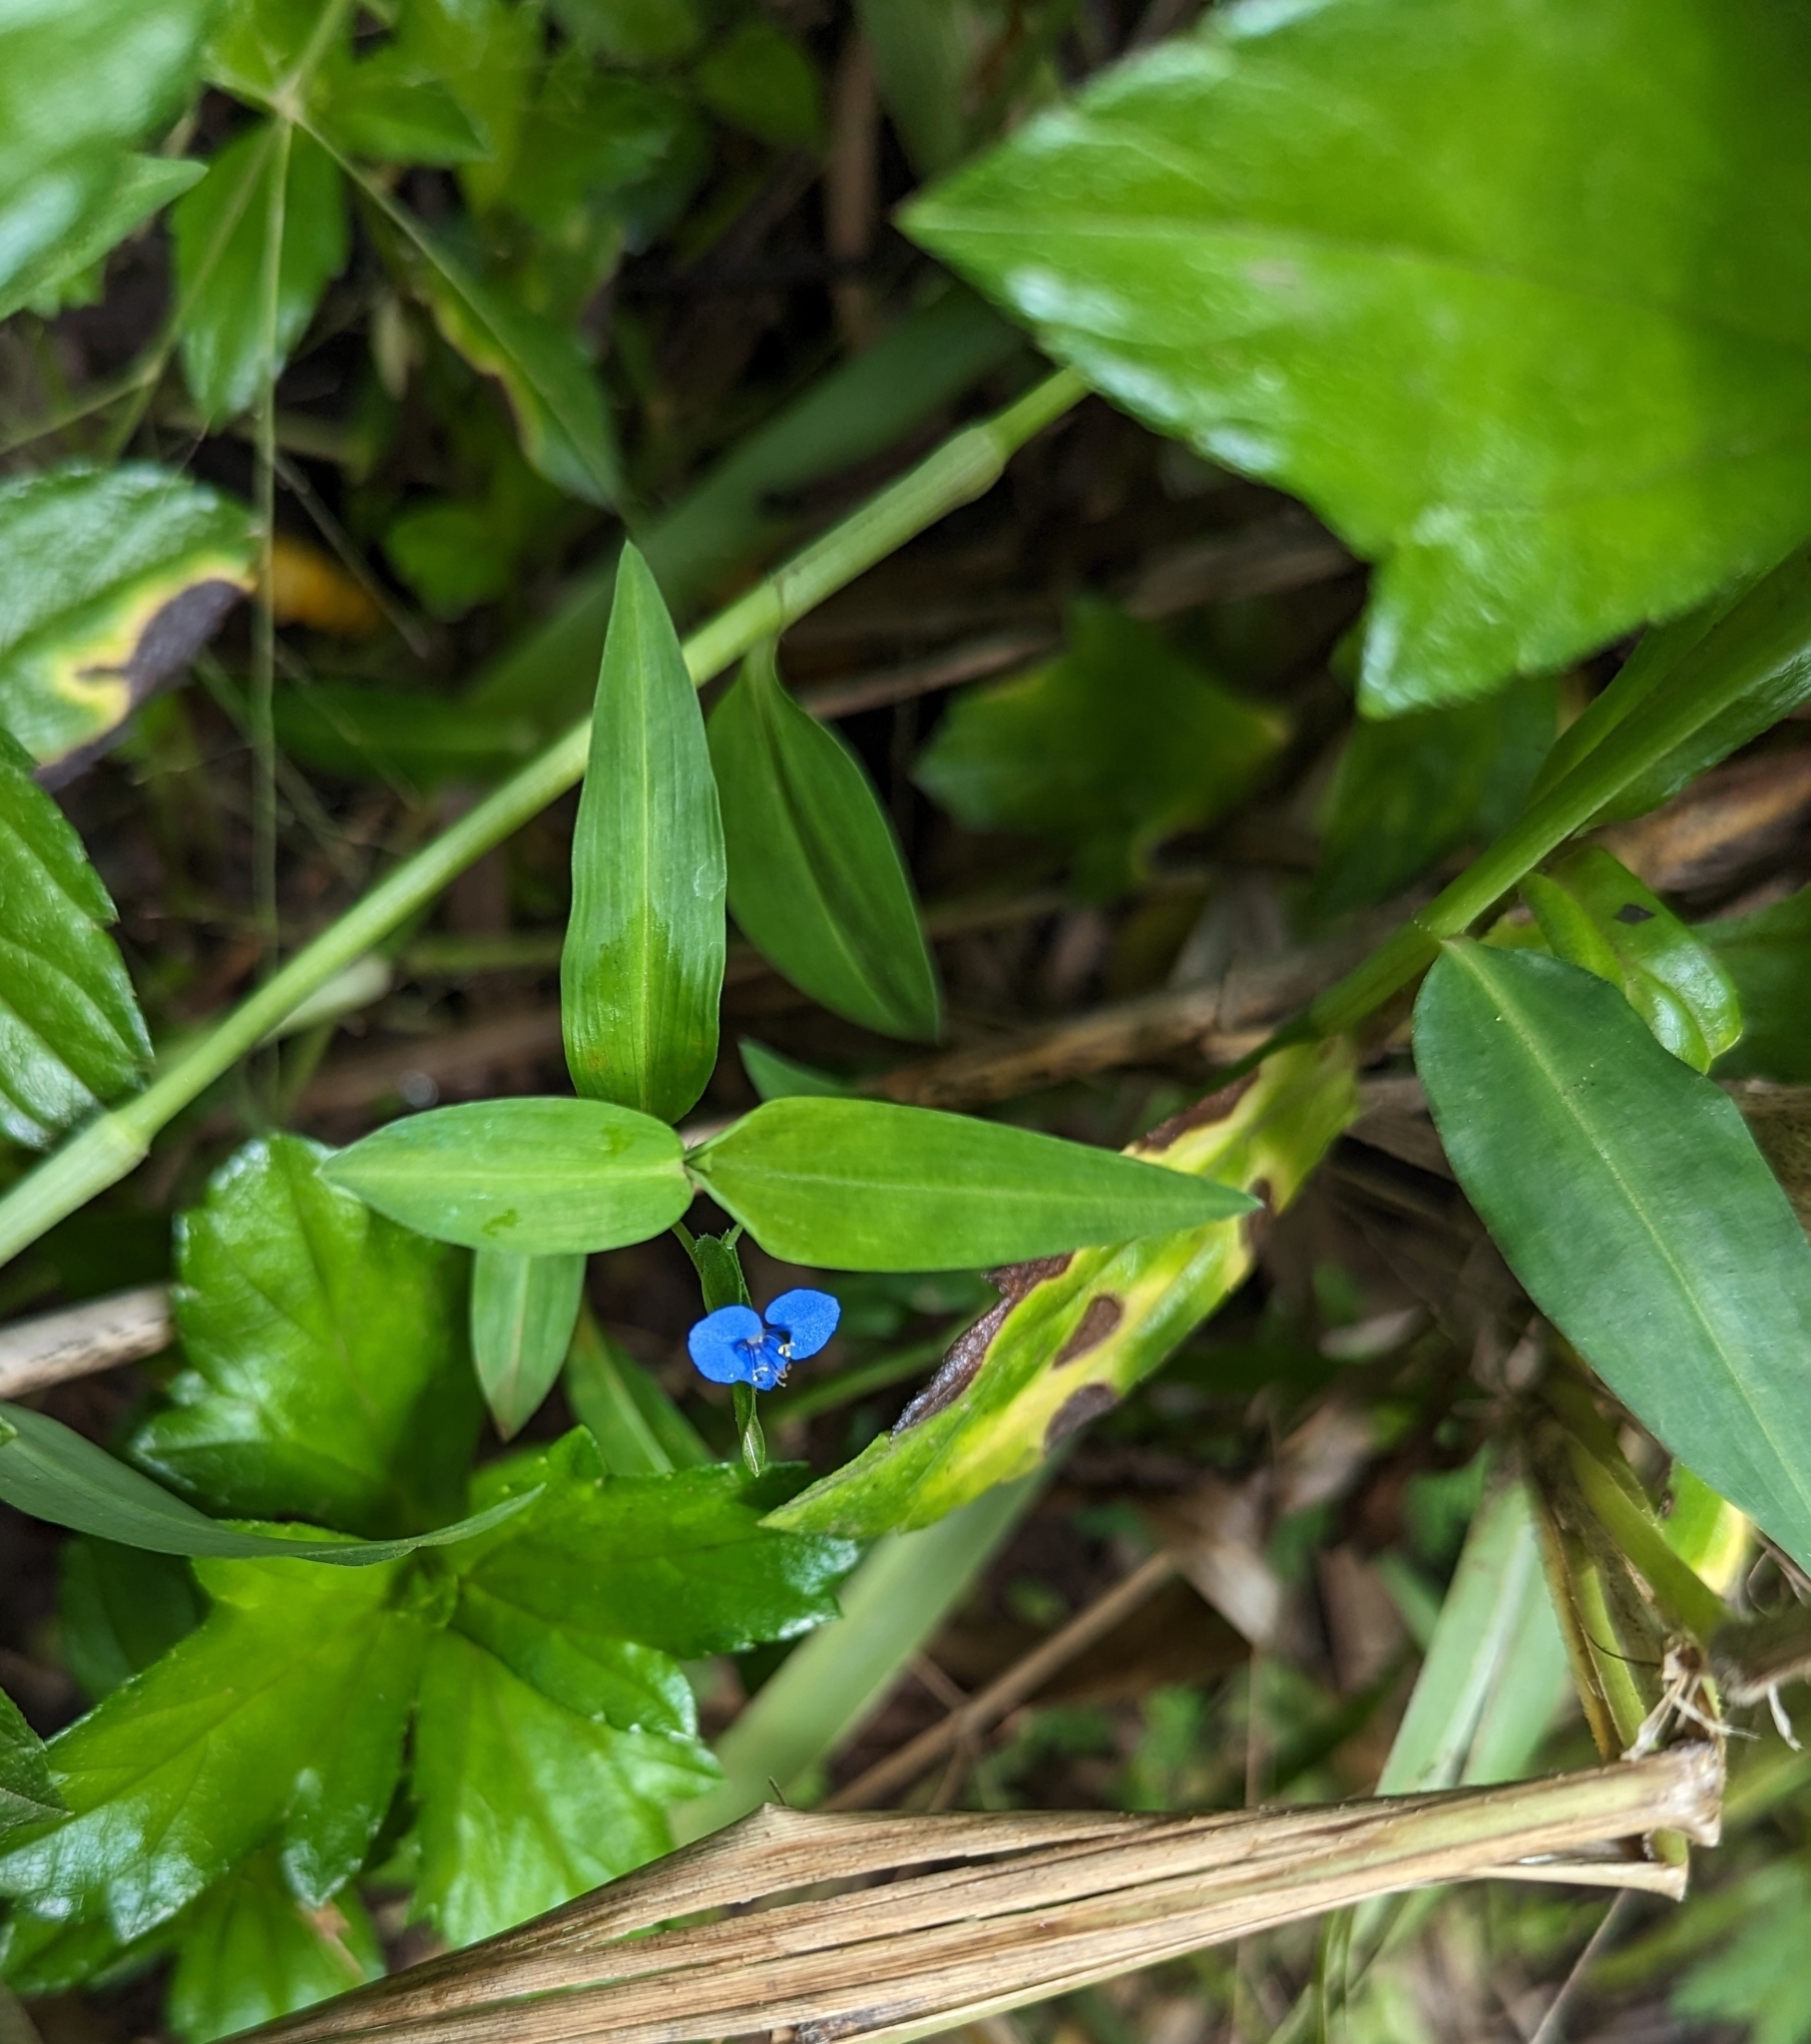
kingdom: Plantae
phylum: Tracheophyta
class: Liliopsida
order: Commelinales
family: Commelinaceae
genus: Commelina
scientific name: Commelina diffusa
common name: Climbing dayflower
